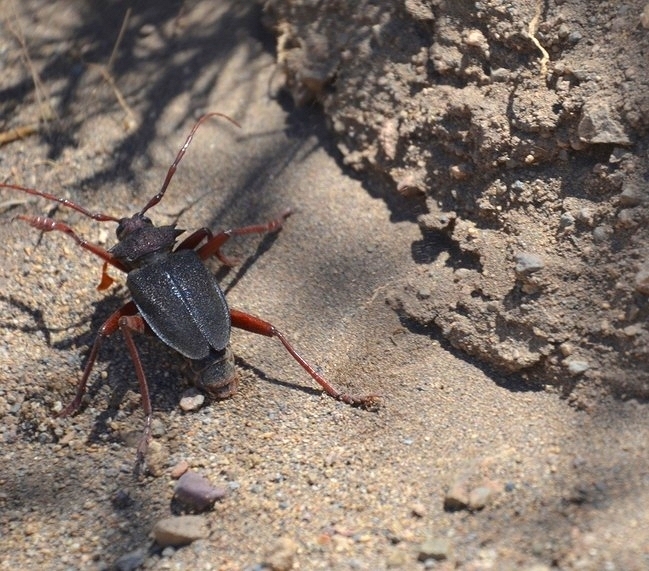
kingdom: Animalia
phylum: Arthropoda
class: Insecta
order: Coleoptera
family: Cerambycidae
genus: Apterocaulus
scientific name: Apterocaulus heterogama
